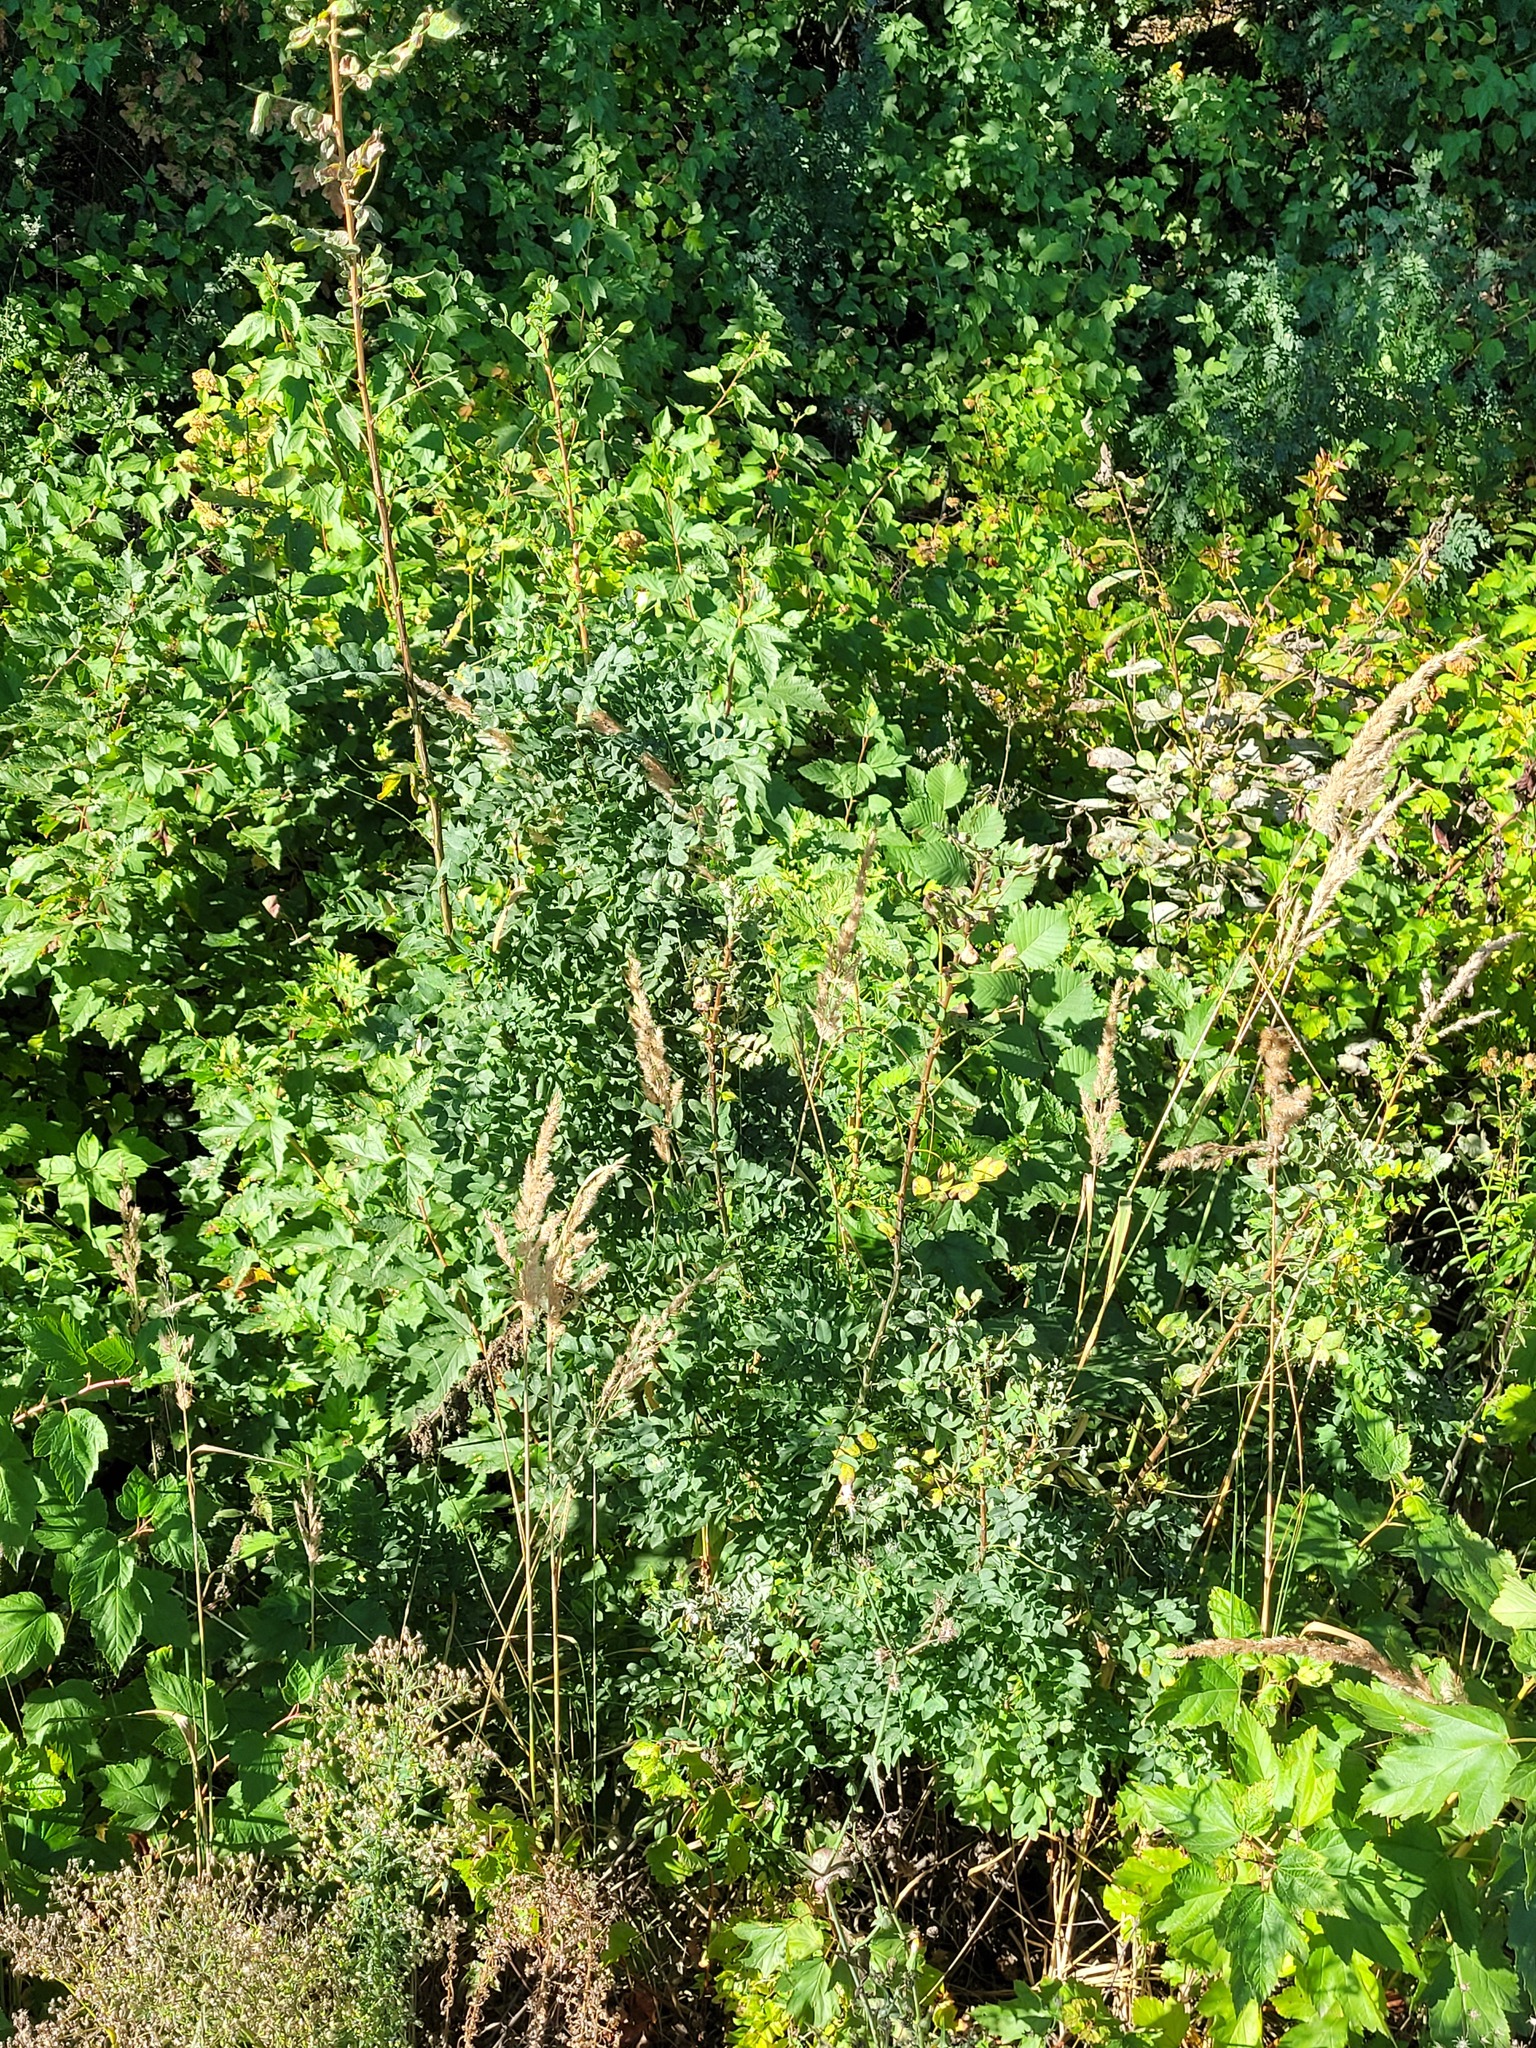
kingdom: Plantae
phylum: Tracheophyta
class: Magnoliopsida
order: Fabales
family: Fabaceae
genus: Caragana
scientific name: Caragana arborescens
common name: Siberian peashrub
